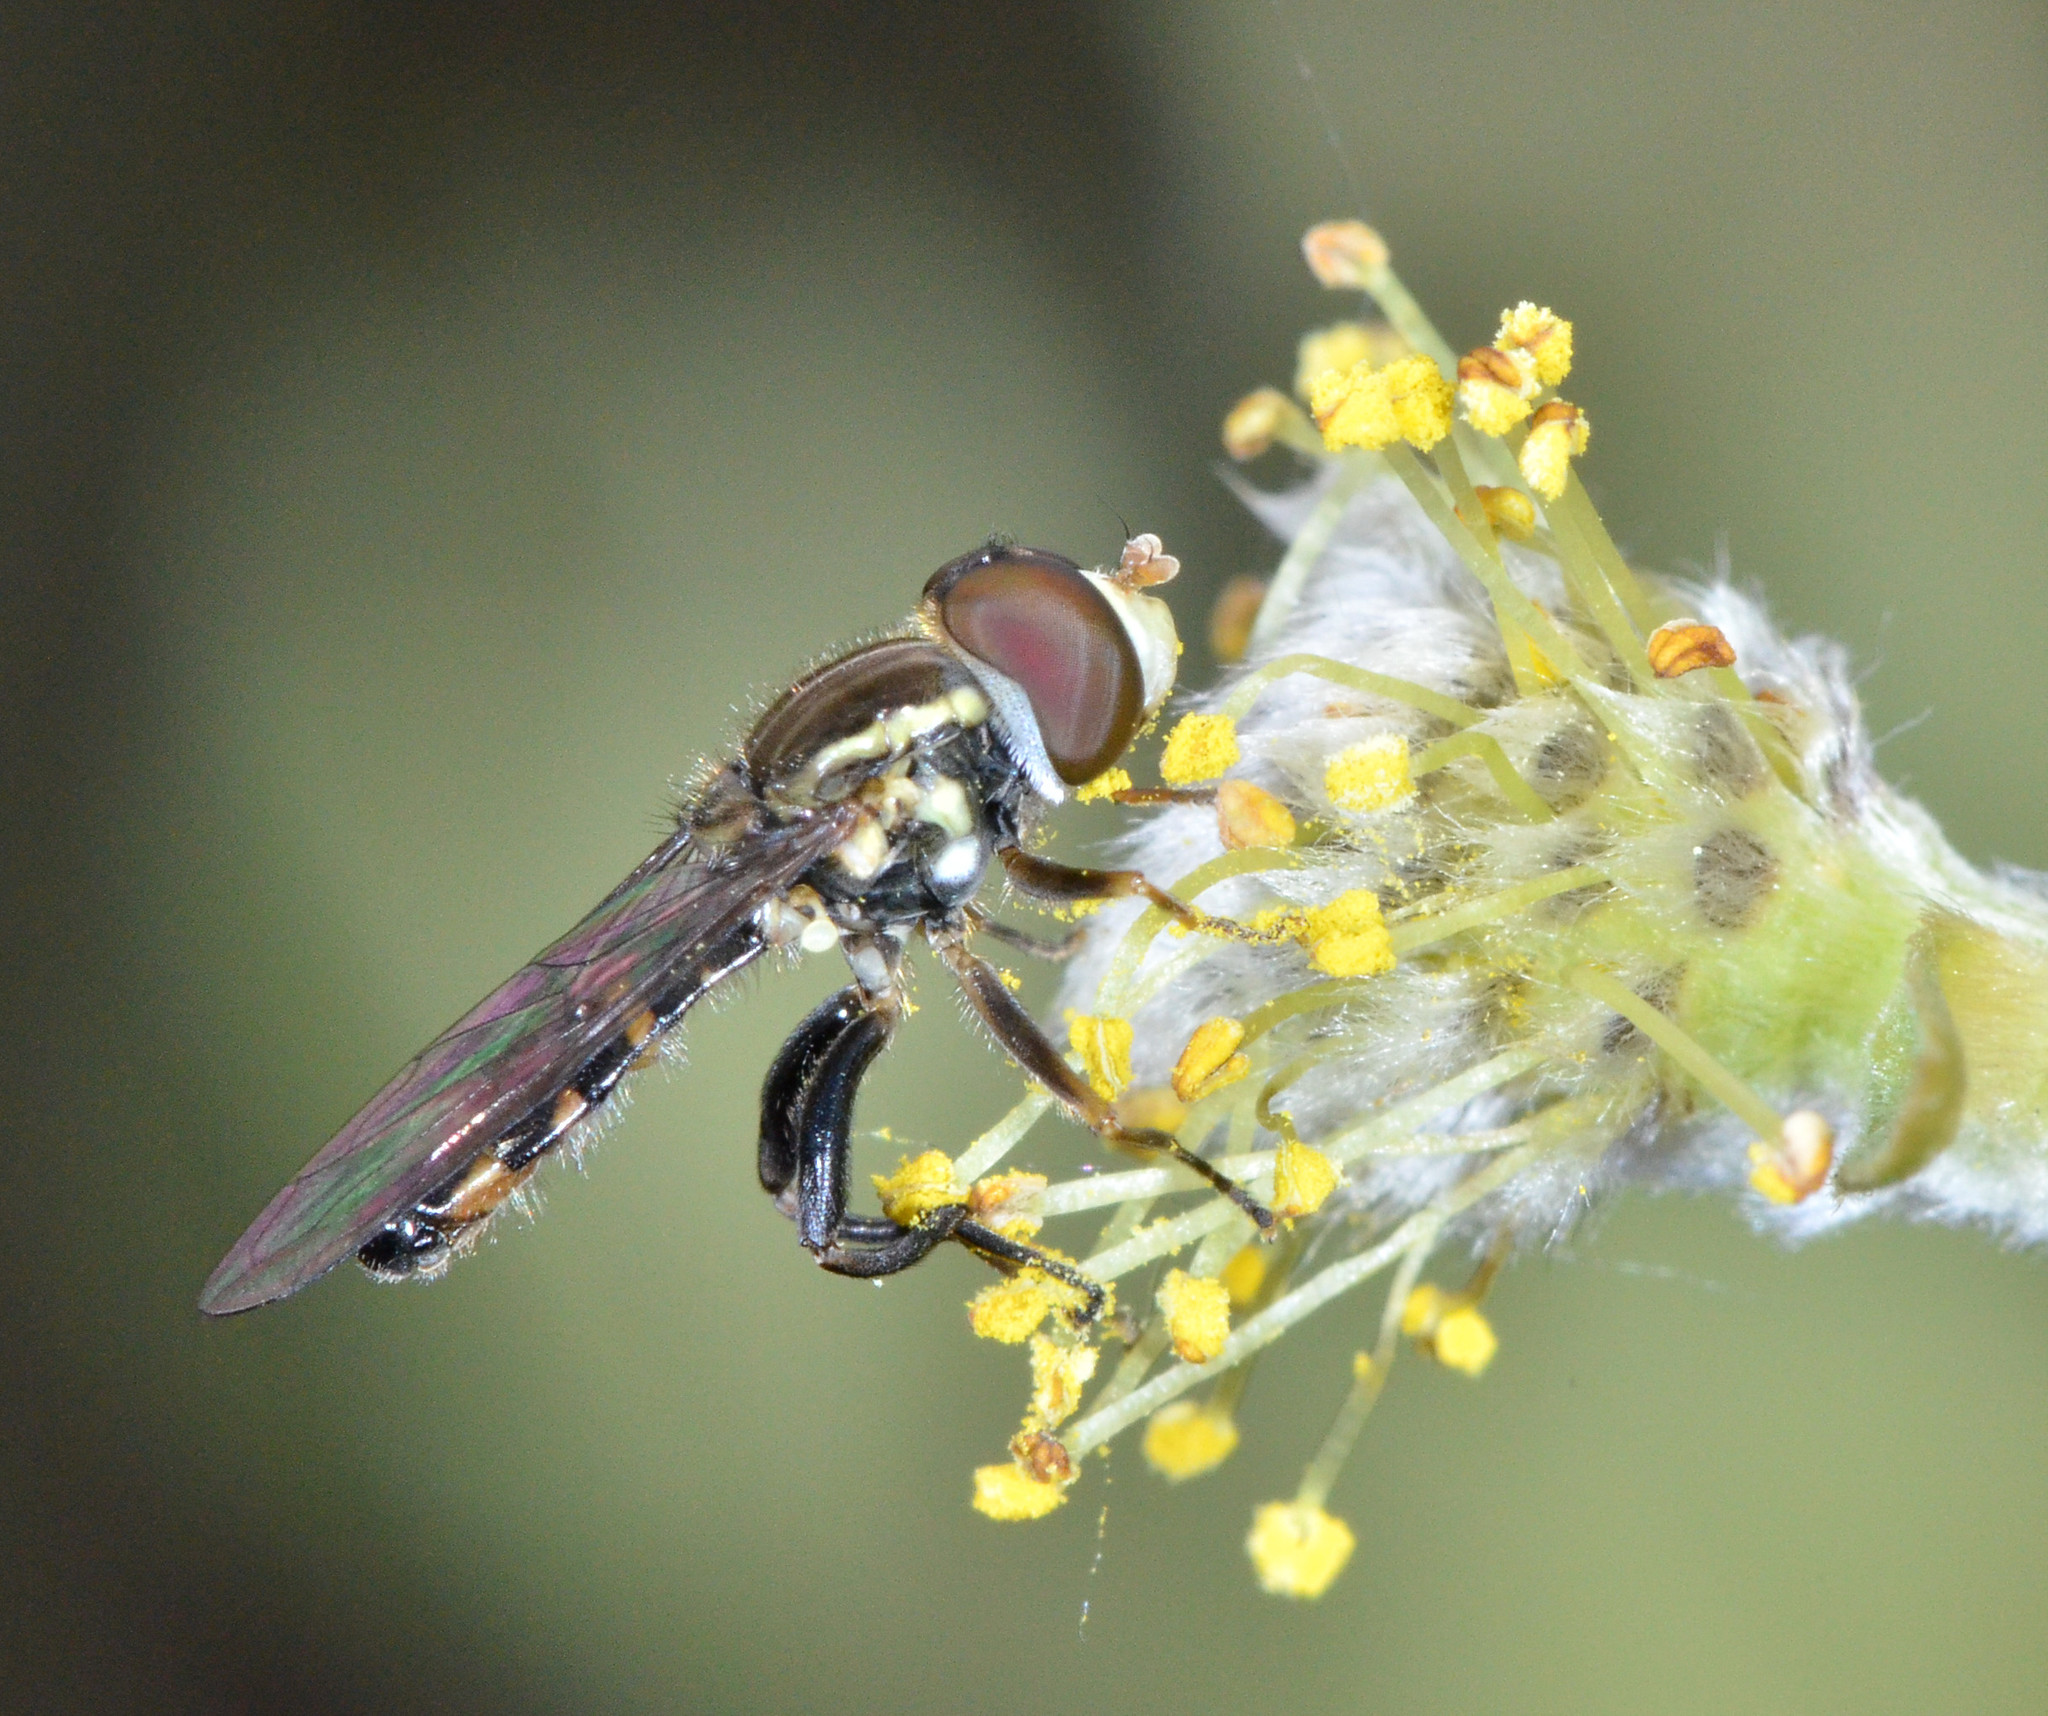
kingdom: Animalia
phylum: Arthropoda
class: Insecta
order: Diptera
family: Syrphidae
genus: Toxomerus
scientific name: Toxomerus occidentalis
